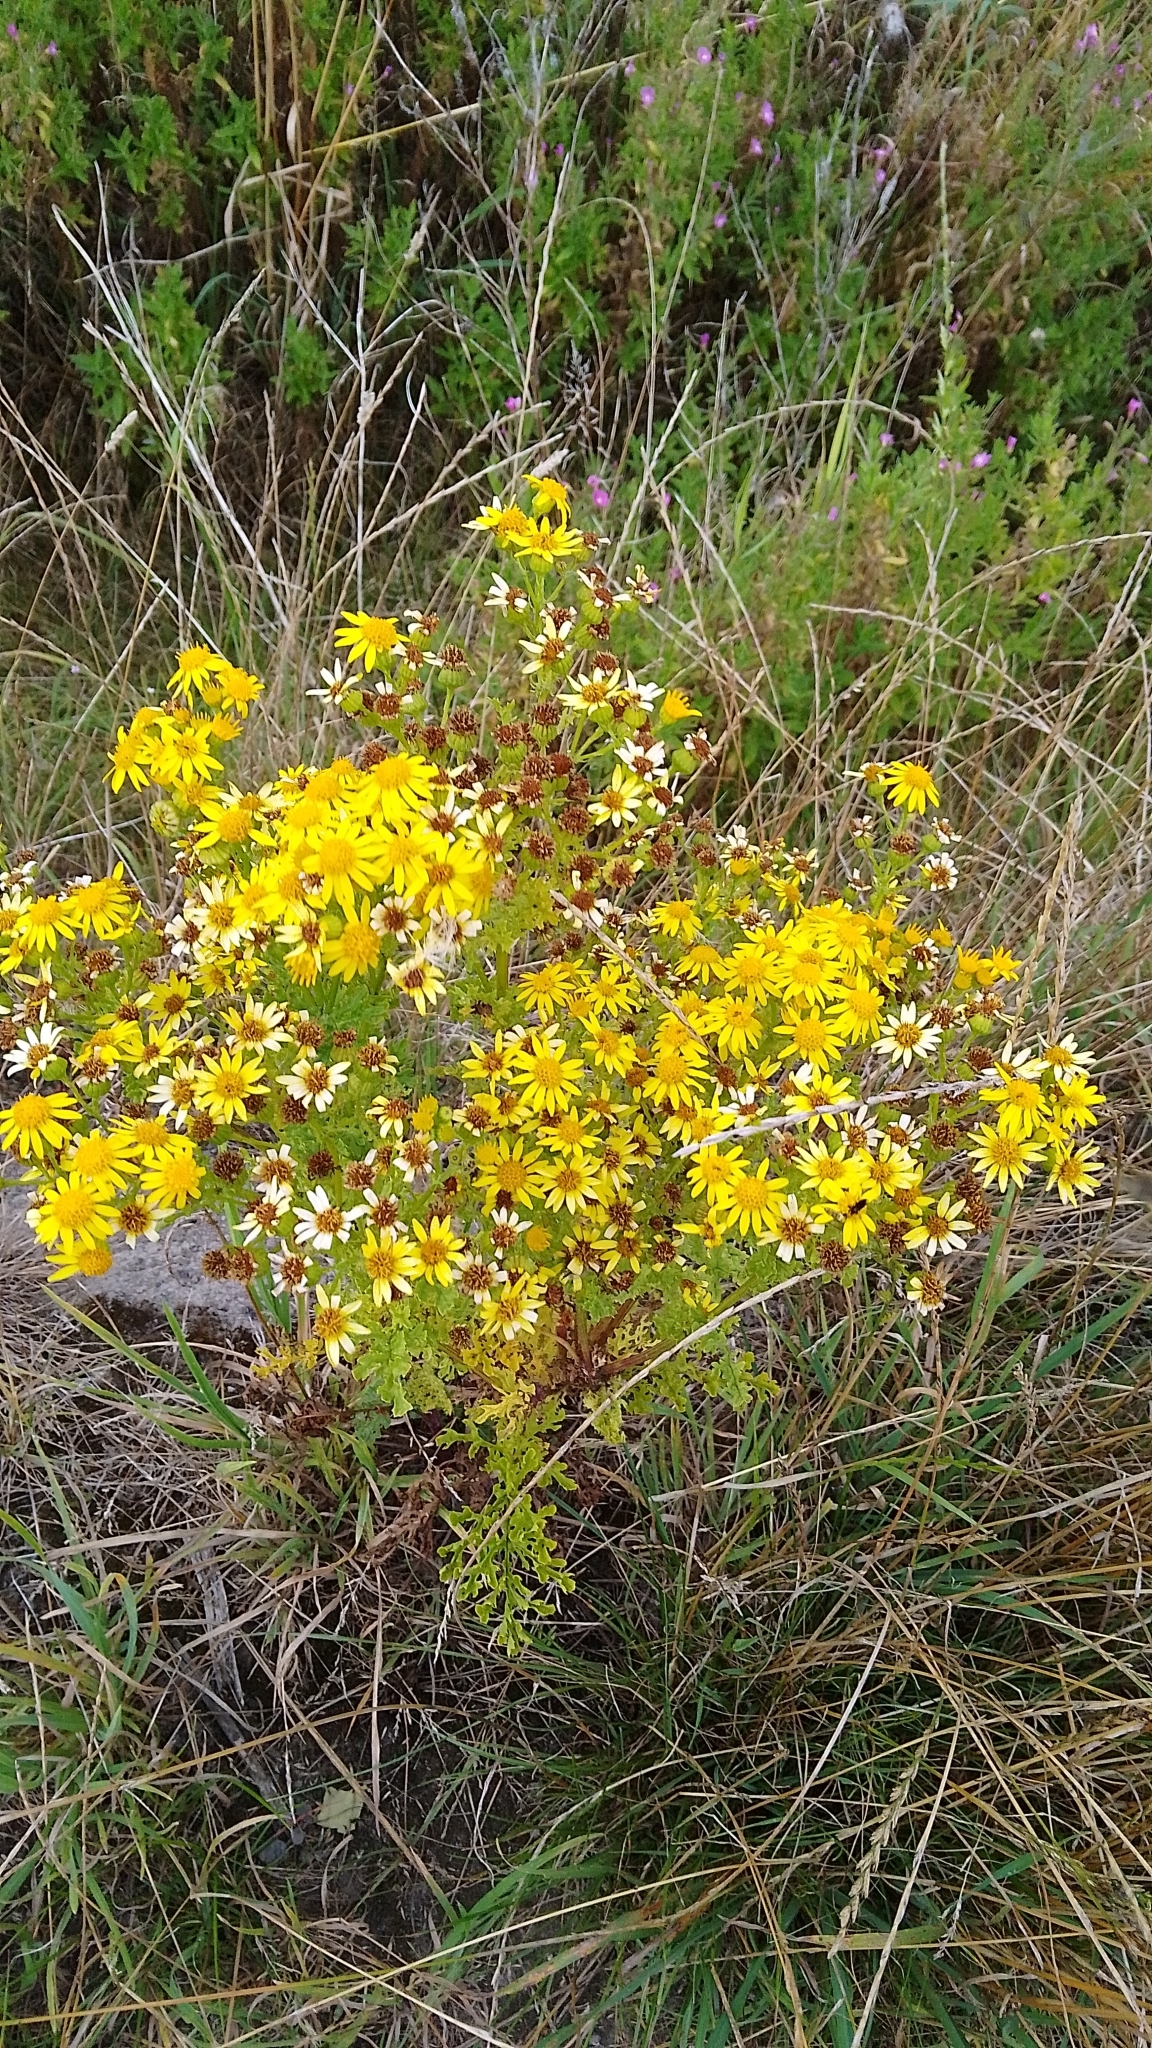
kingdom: Plantae
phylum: Tracheophyta
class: Magnoliopsida
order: Asterales
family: Asteraceae
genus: Jacobaea
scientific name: Jacobaea vulgaris
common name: Stinking willie
